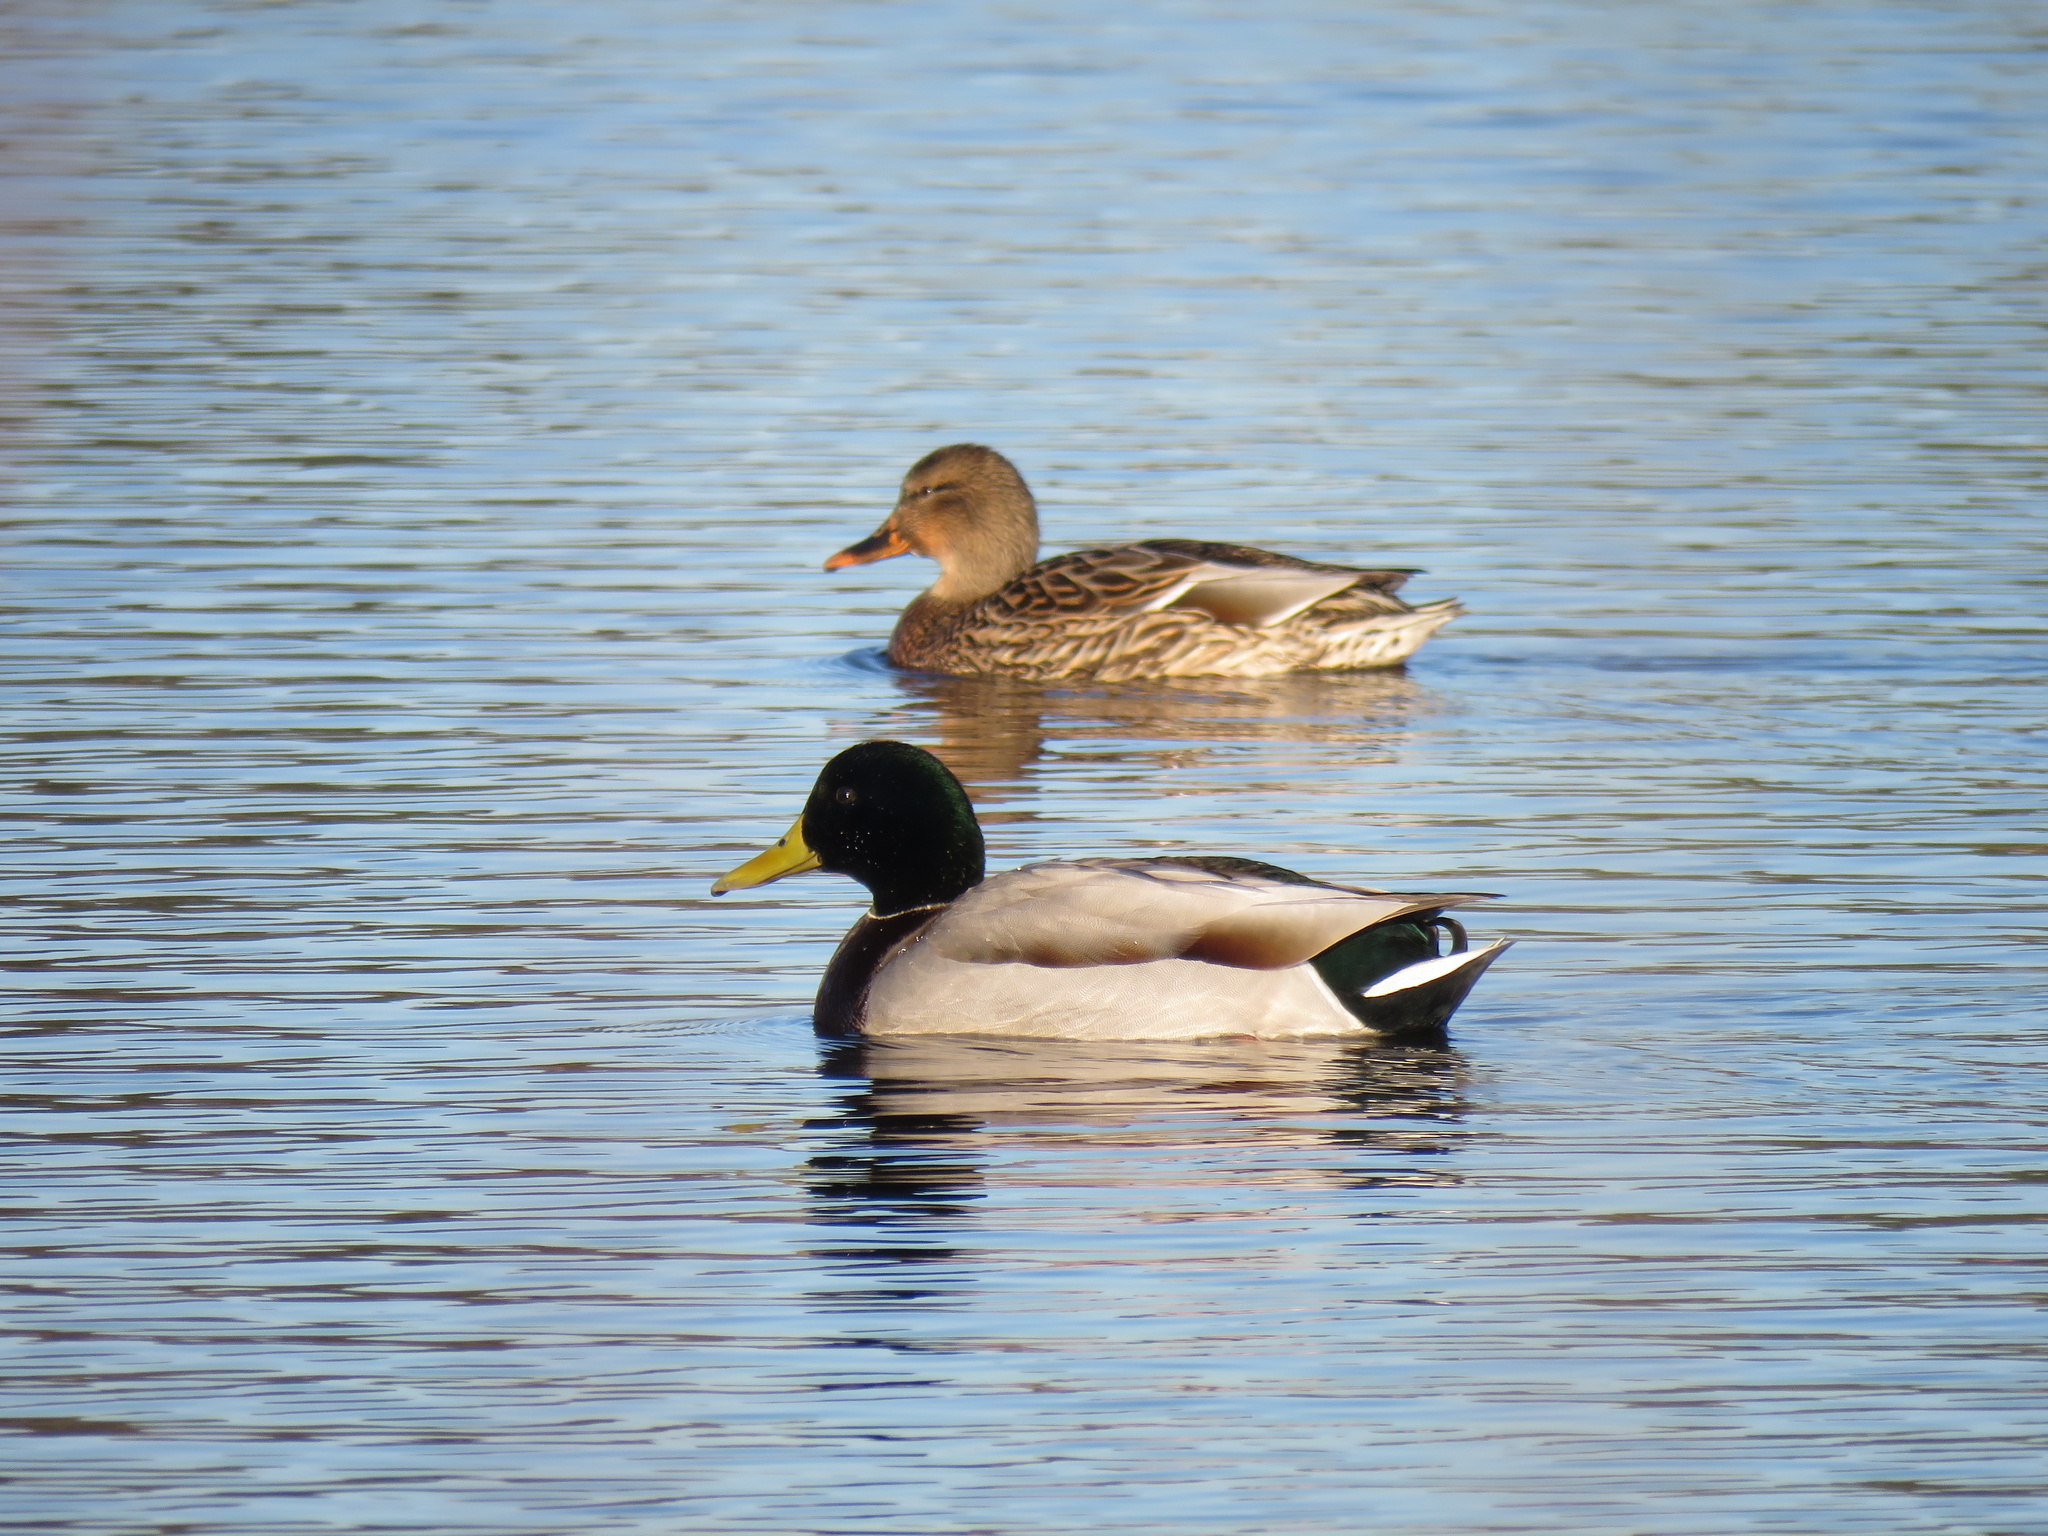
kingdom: Animalia
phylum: Chordata
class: Aves
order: Anseriformes
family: Anatidae
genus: Anas
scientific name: Anas platyrhynchos
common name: Mallard
